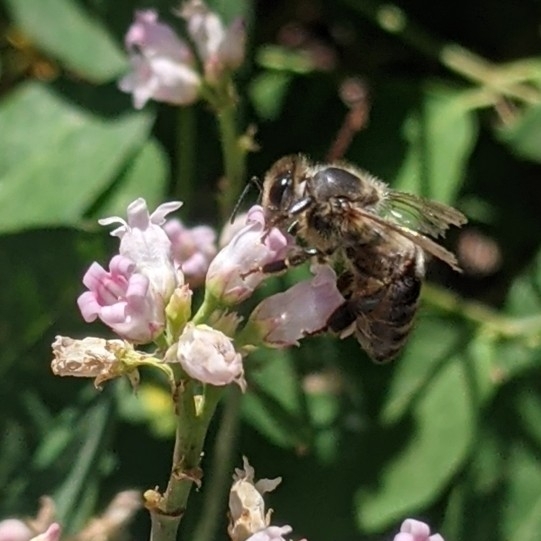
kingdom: Animalia
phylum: Arthropoda
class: Insecta
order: Hymenoptera
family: Apidae
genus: Apis
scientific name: Apis mellifera
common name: Honey bee
